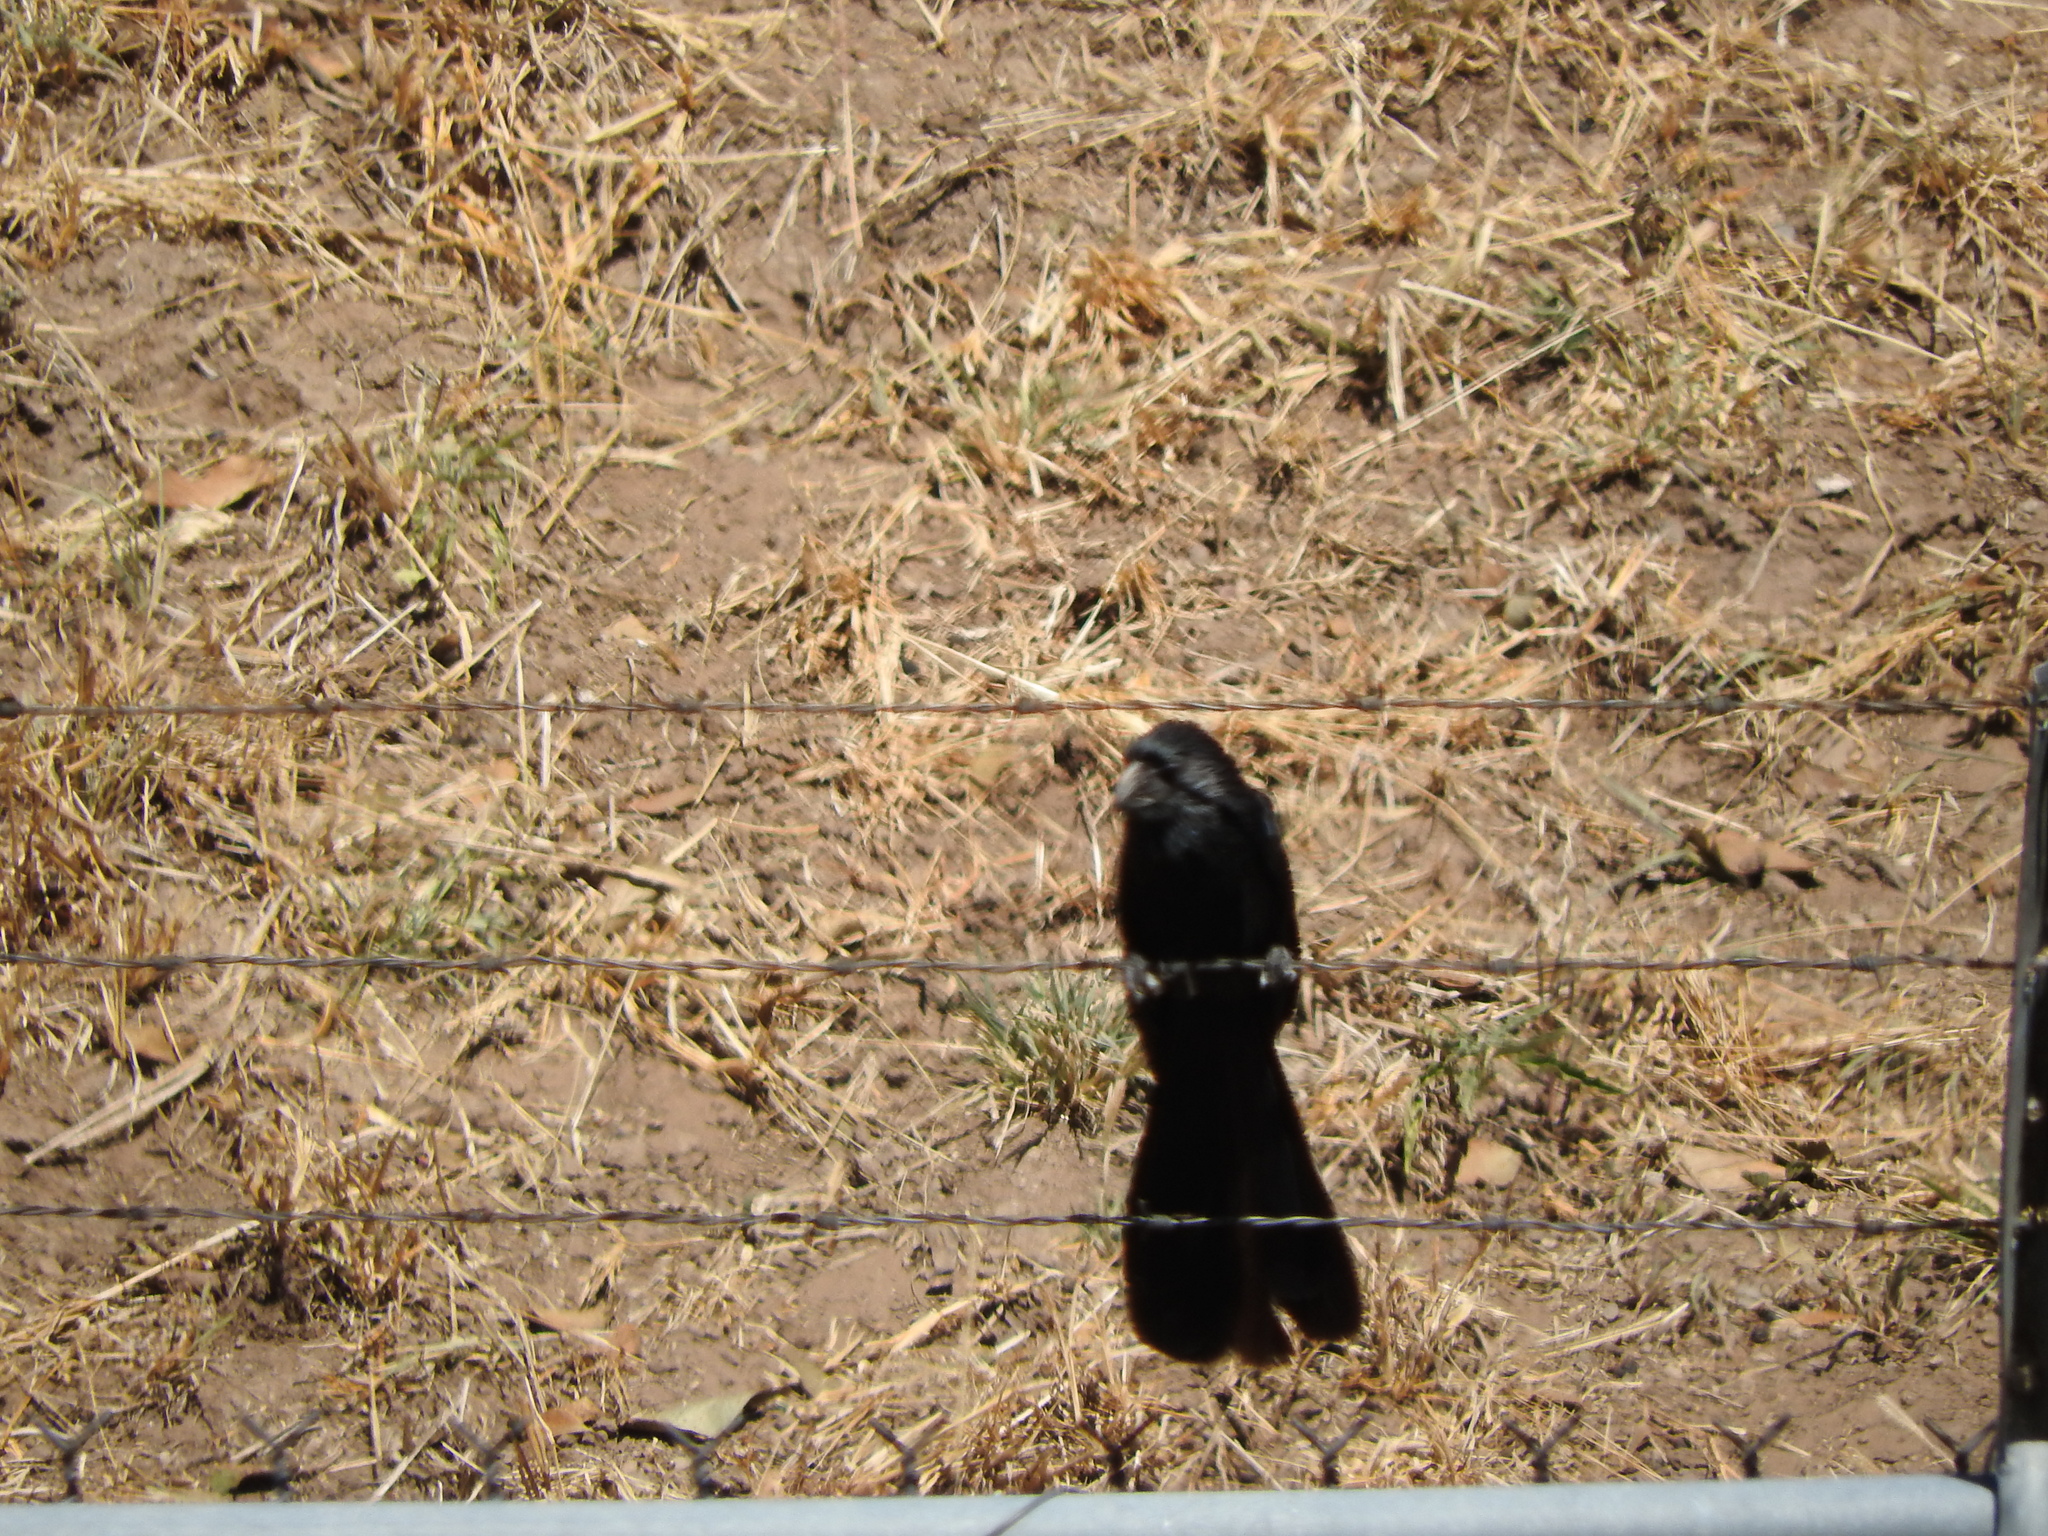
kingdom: Animalia
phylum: Chordata
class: Aves
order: Cuculiformes
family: Cuculidae
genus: Crotophaga
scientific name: Crotophaga sulcirostris
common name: Groove-billed ani
